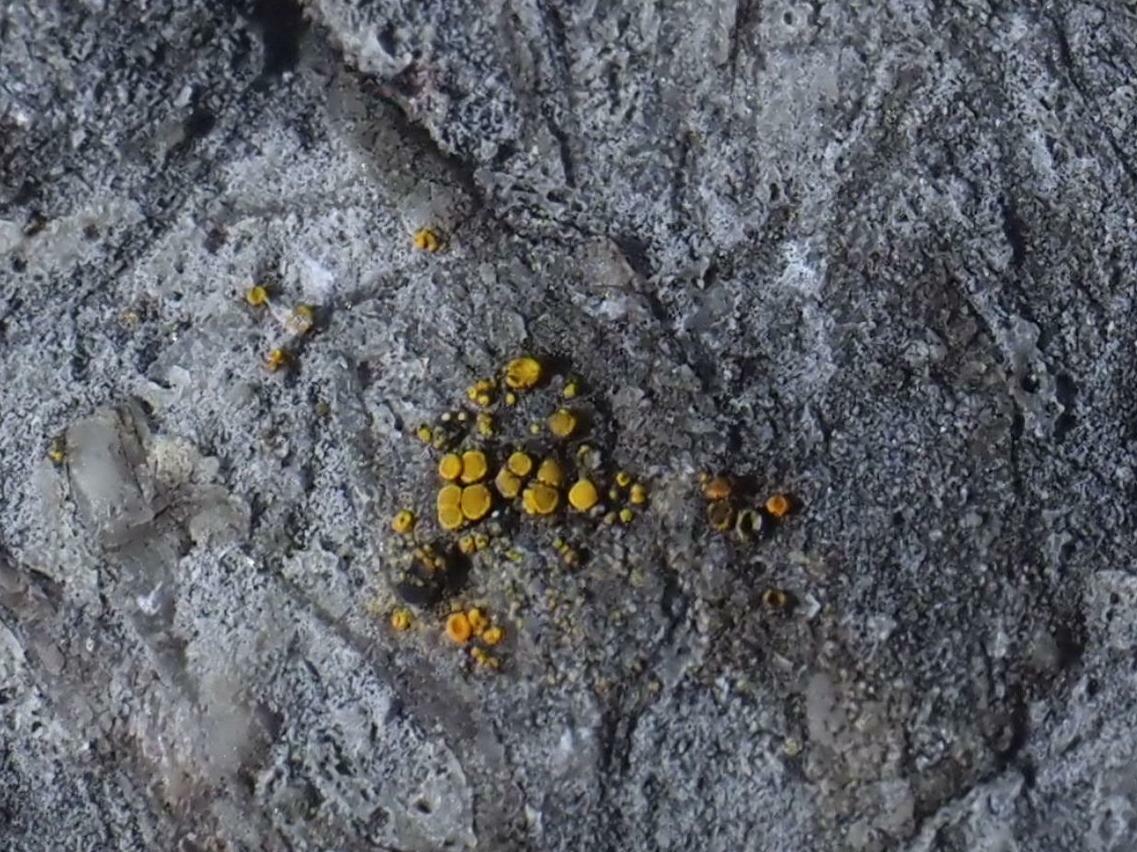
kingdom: Fungi
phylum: Ascomycota
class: Candelariomycetes
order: Candelariales
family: Candelariaceae
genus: Candelariella
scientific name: Candelariella aurella
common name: Hidden goldspeck lichen
